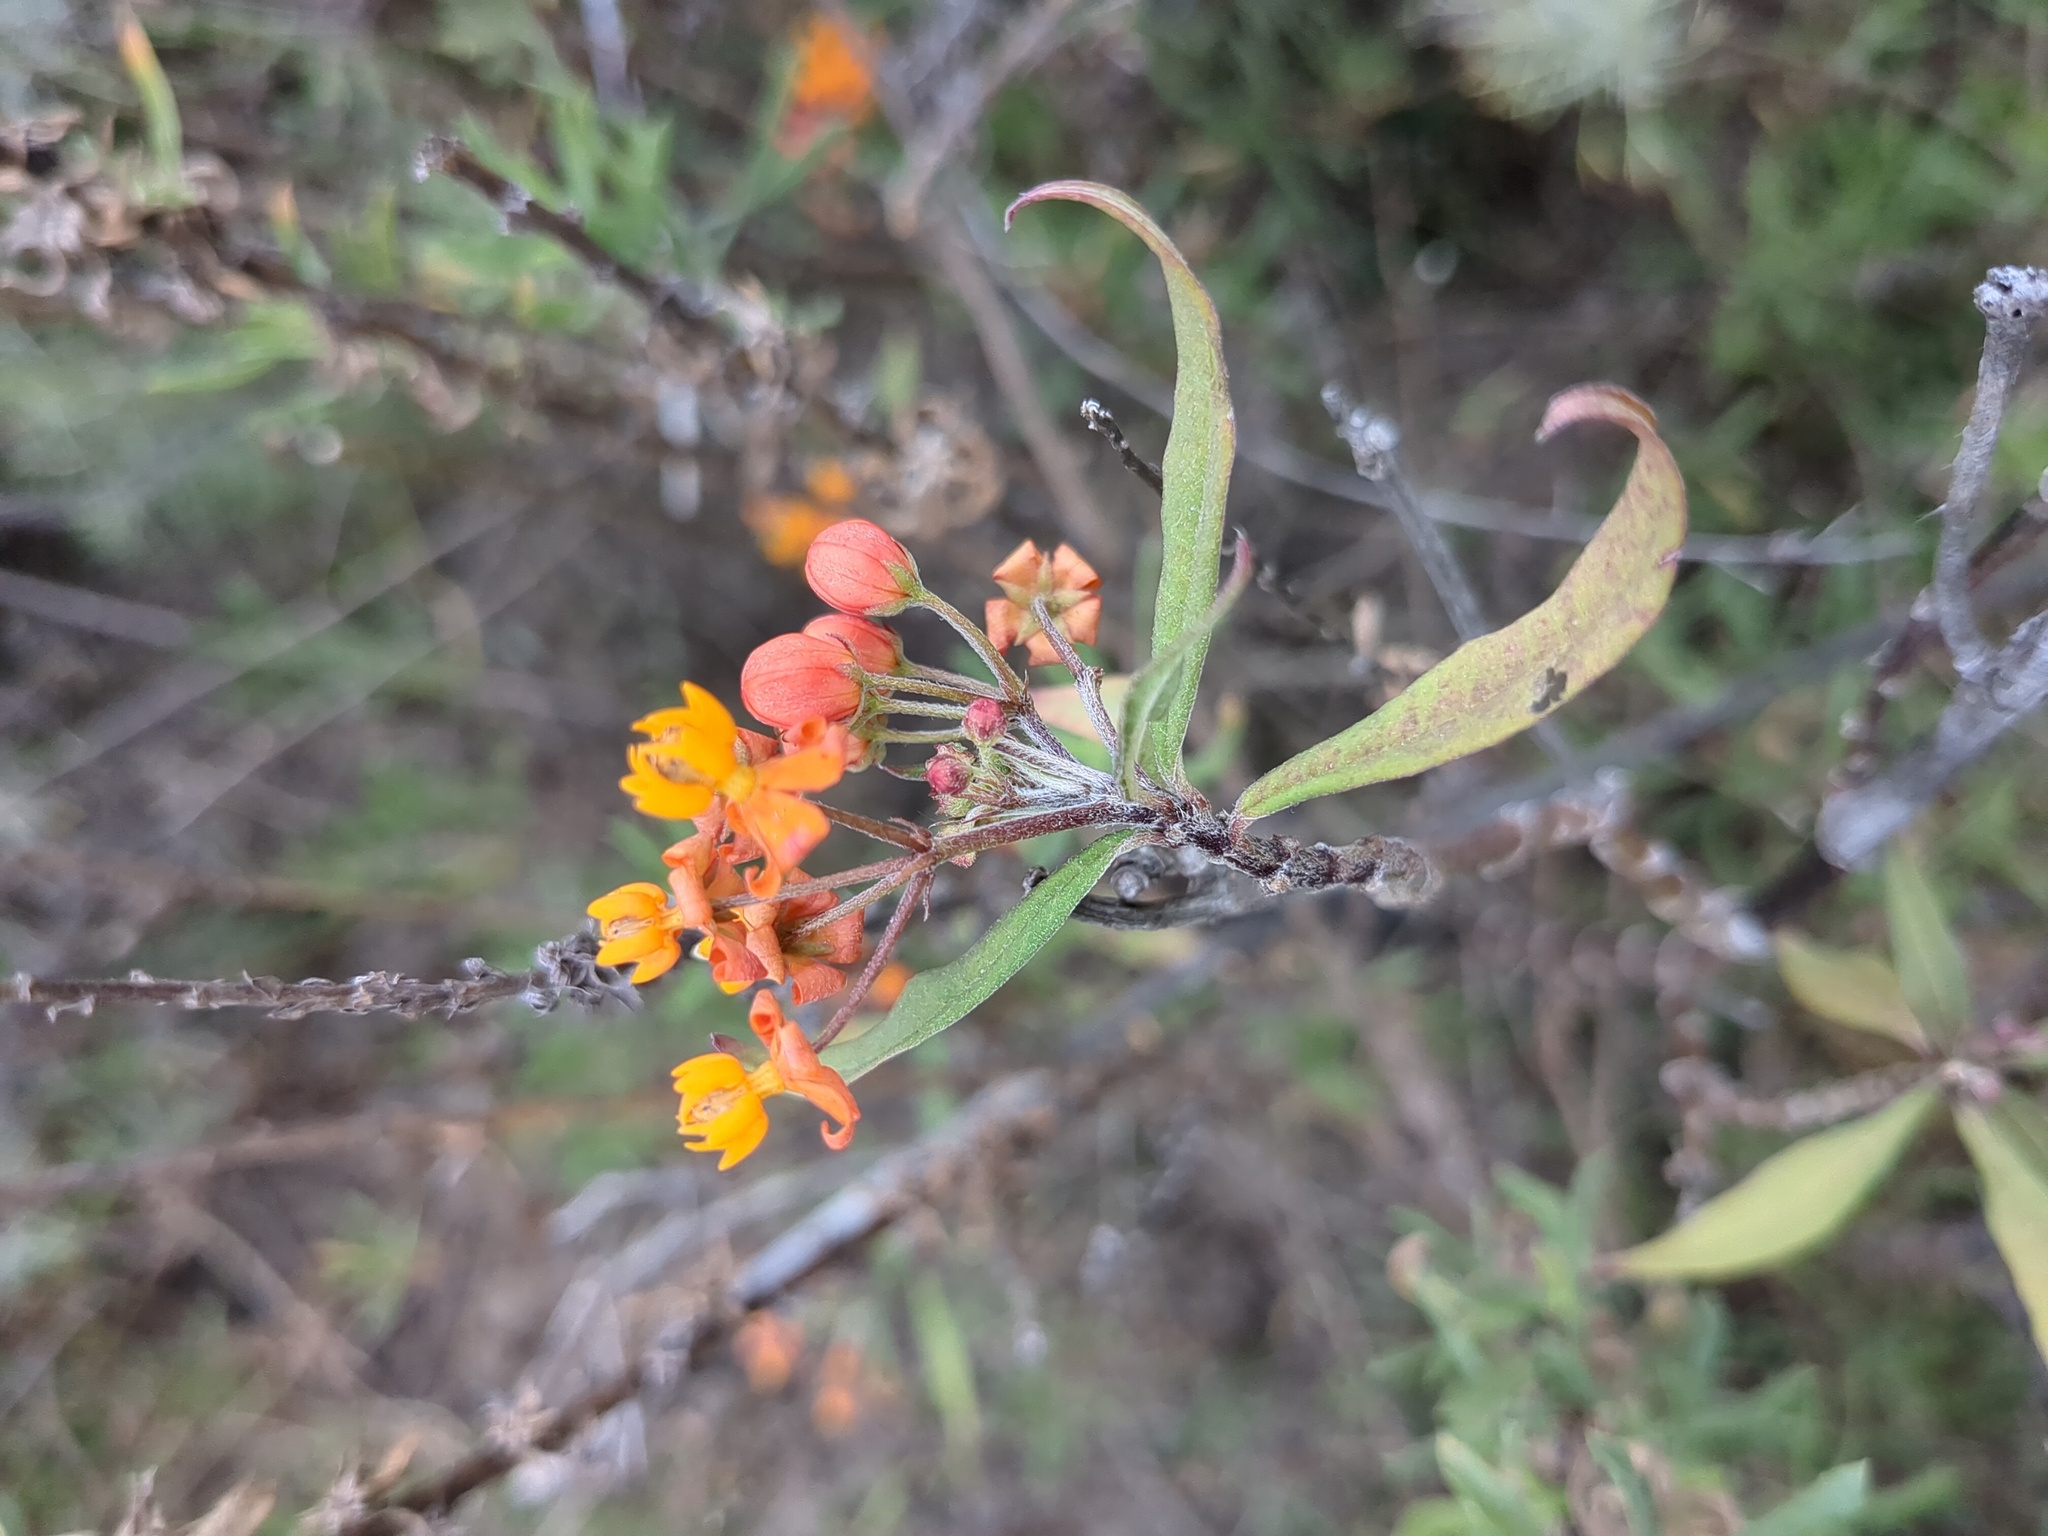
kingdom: Plantae
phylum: Tracheophyta
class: Magnoliopsida
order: Gentianales
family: Apocynaceae
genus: Asclepias
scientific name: Asclepias curassavica
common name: Bloodflower
